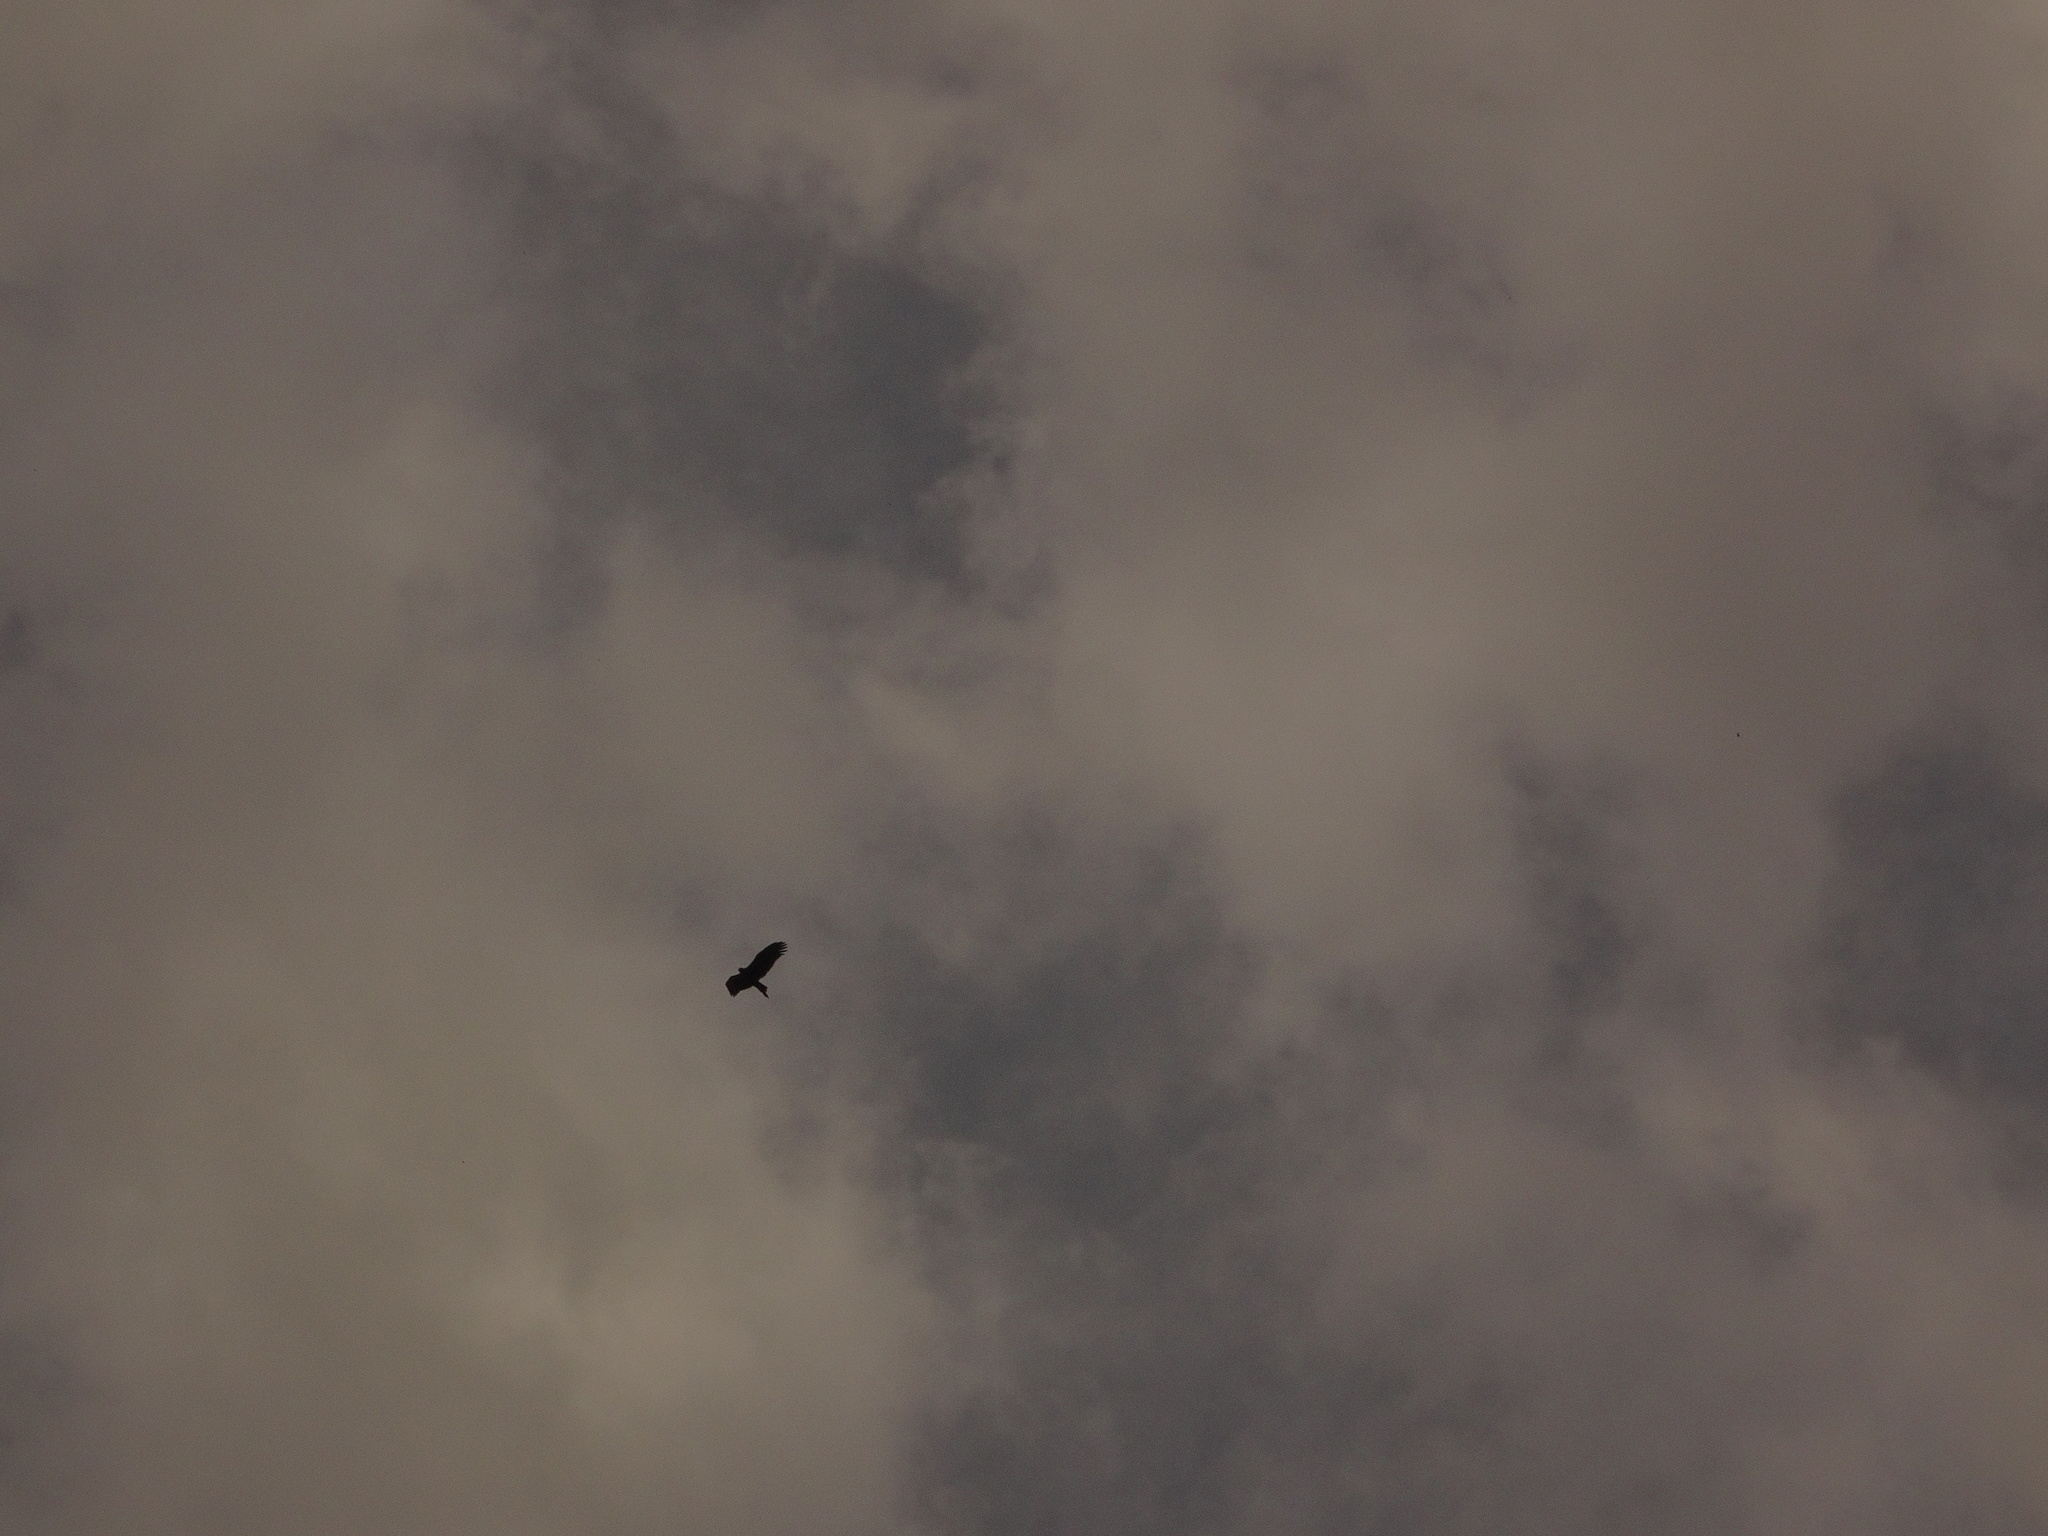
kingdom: Animalia
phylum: Chordata
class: Aves
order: Accipitriformes
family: Accipitridae
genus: Aquila
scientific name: Aquila audax
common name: Wedge-tailed eagle
